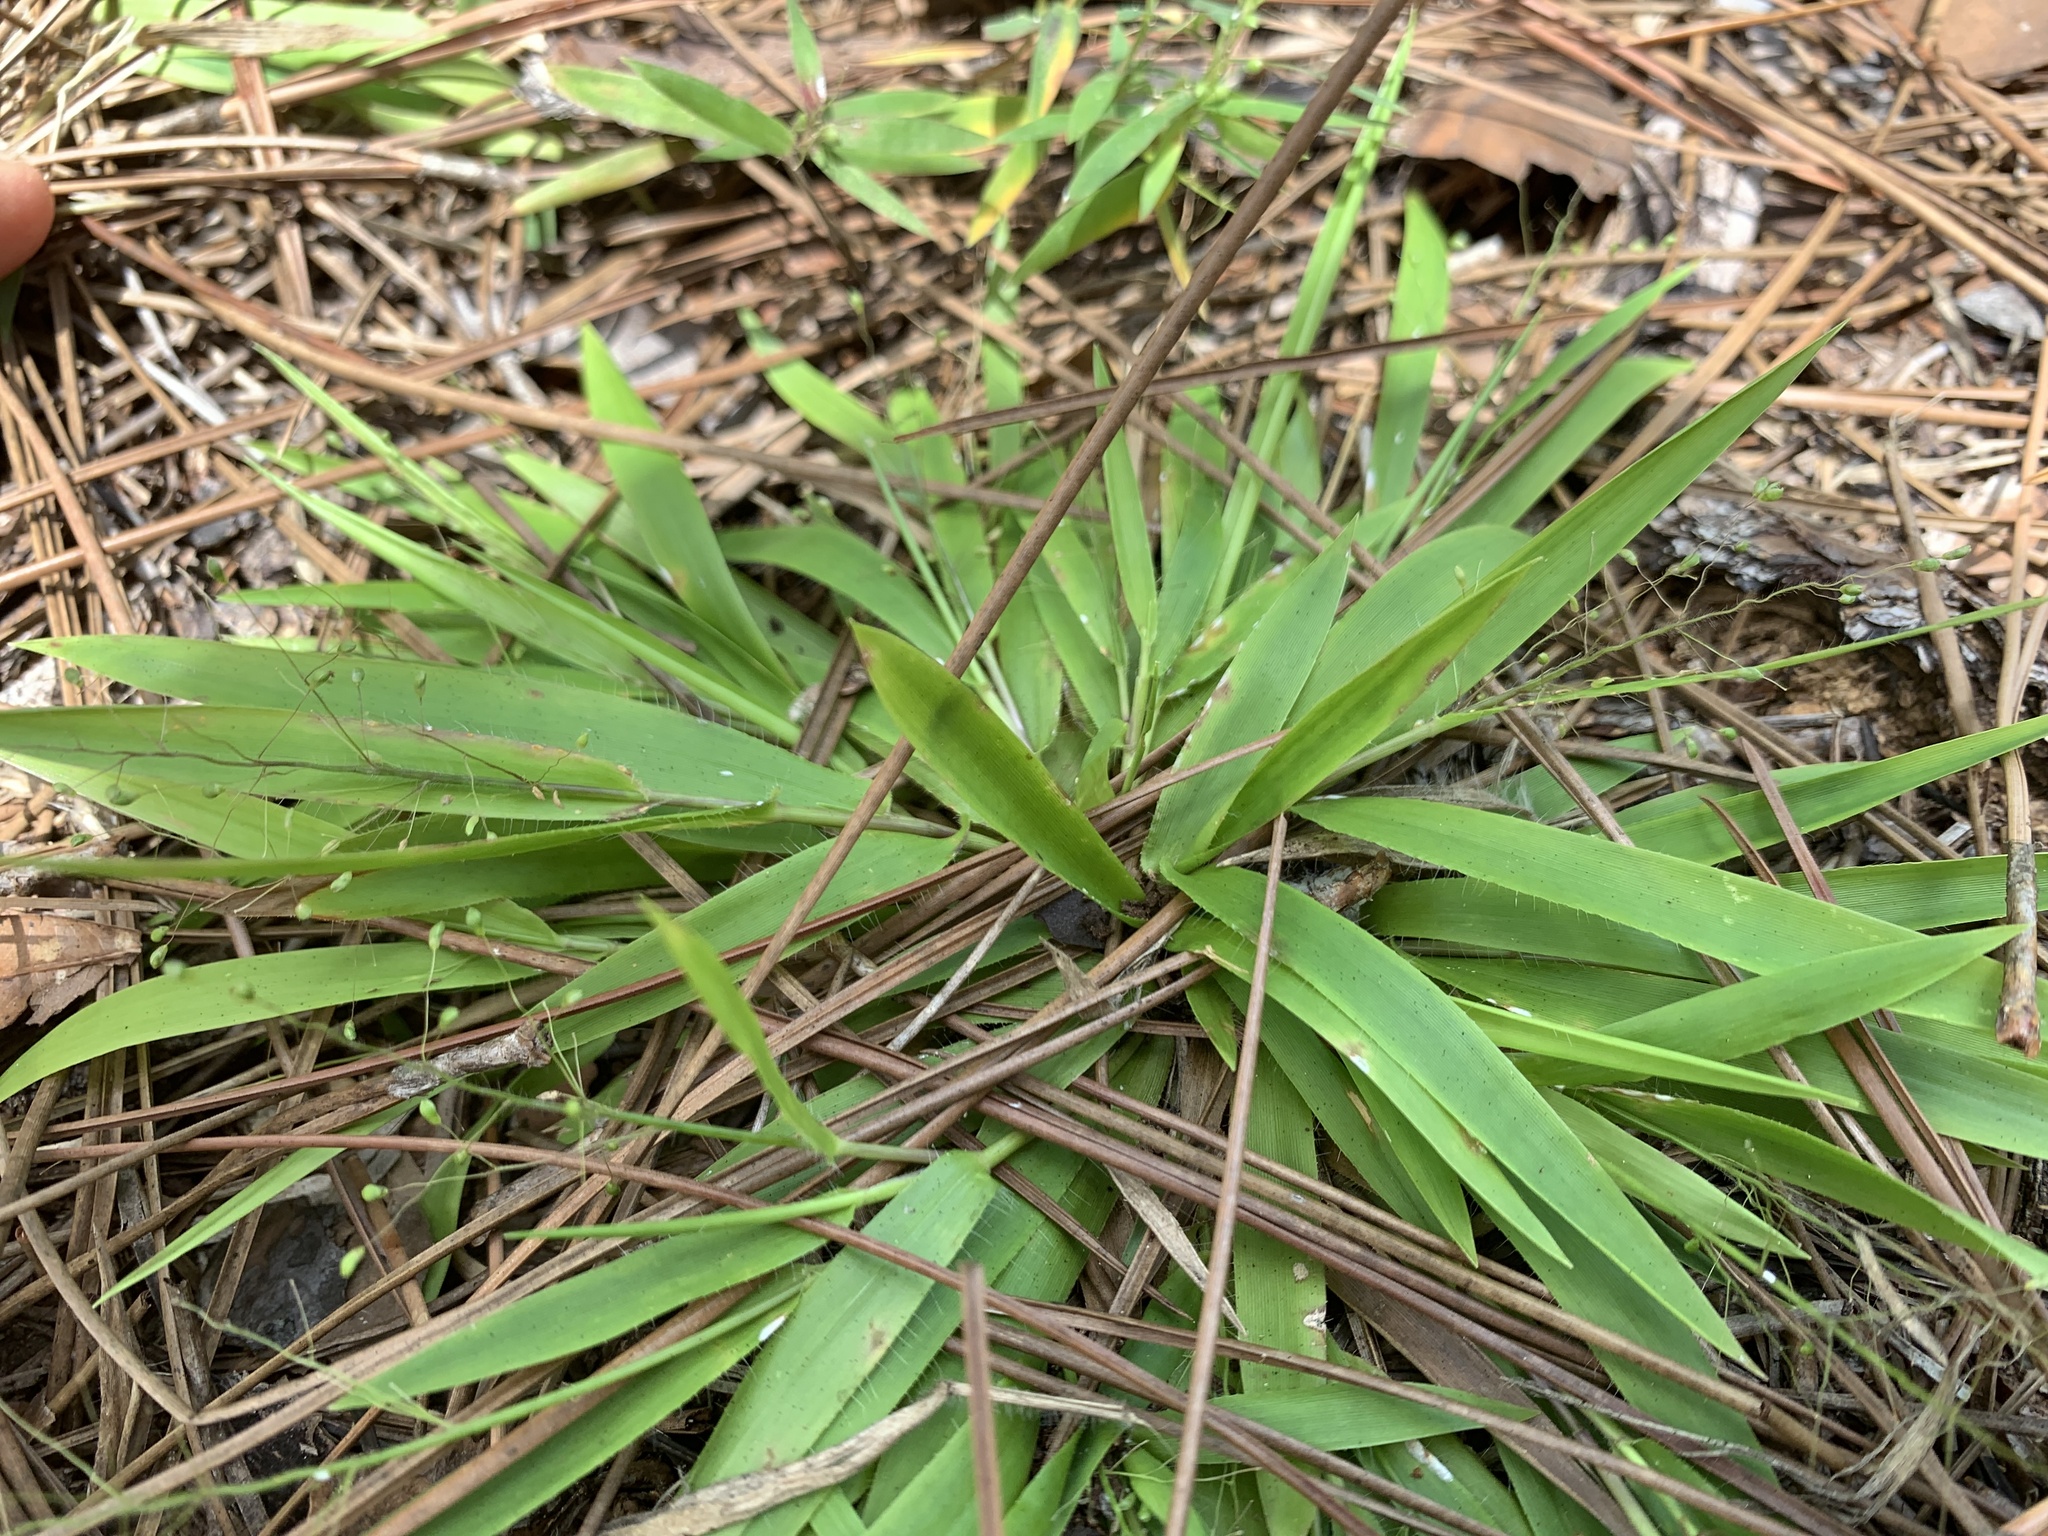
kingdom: Plantae
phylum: Tracheophyta
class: Liliopsida
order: Poales
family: Poaceae
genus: Dichanthelium
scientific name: Dichanthelium strigosum
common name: Cushion-tuft panic grass
